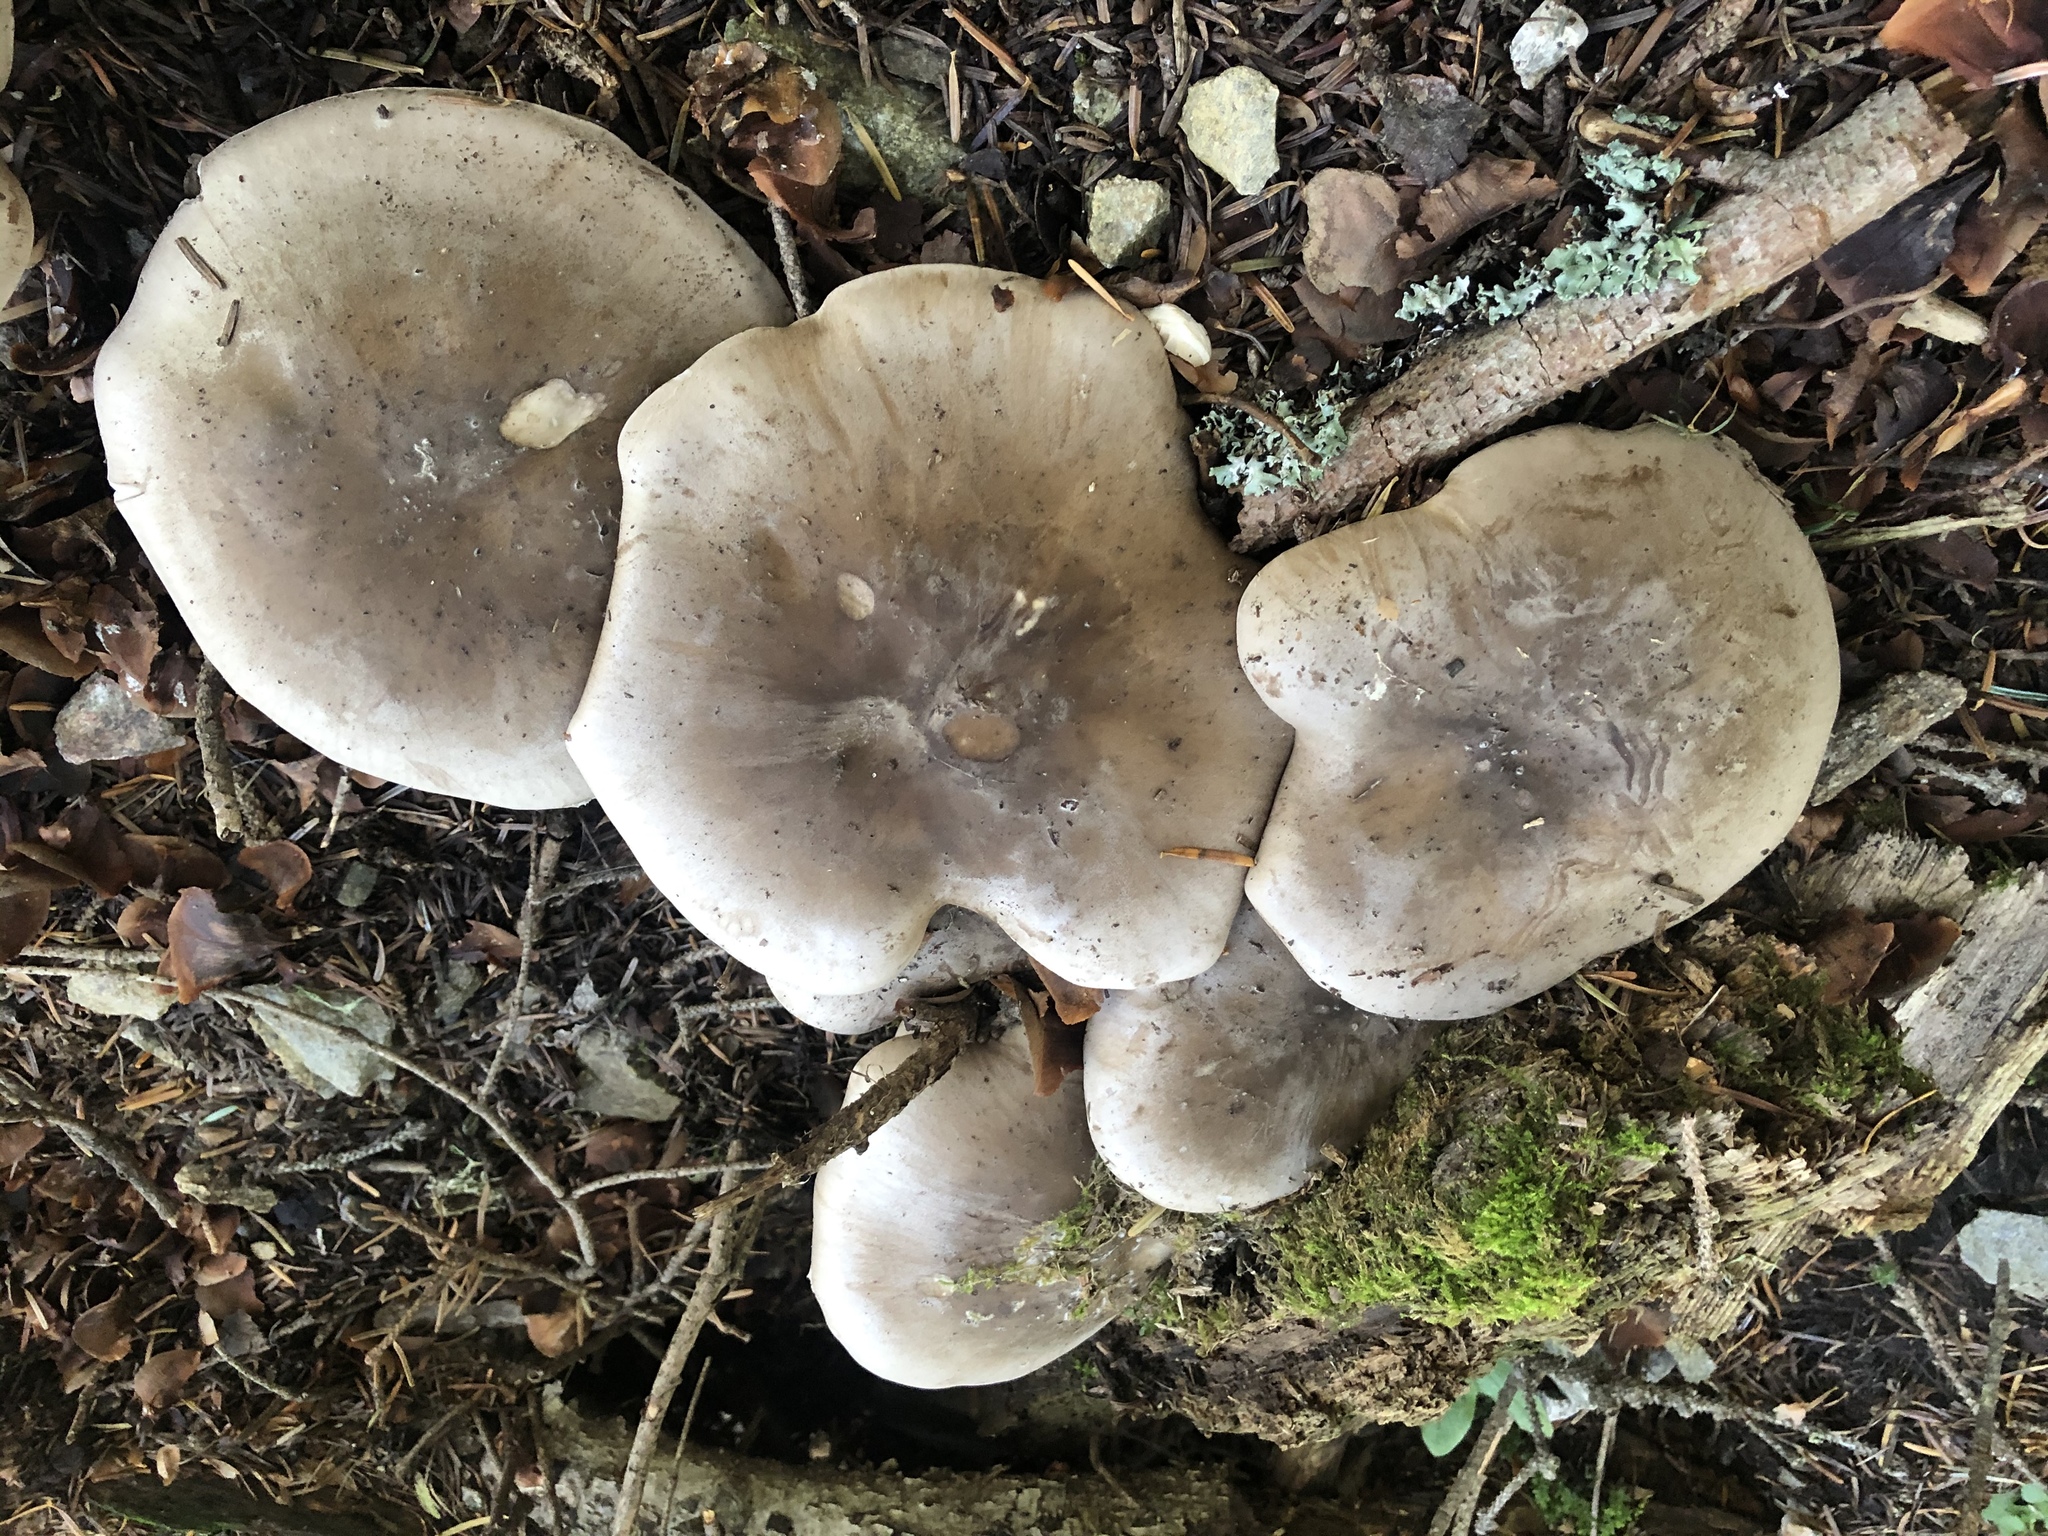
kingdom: Fungi
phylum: Basidiomycota
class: Agaricomycetes
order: Agaricales
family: Tricholomataceae
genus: Clitocybe
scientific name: Clitocybe nebularis
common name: Clouded agaric
